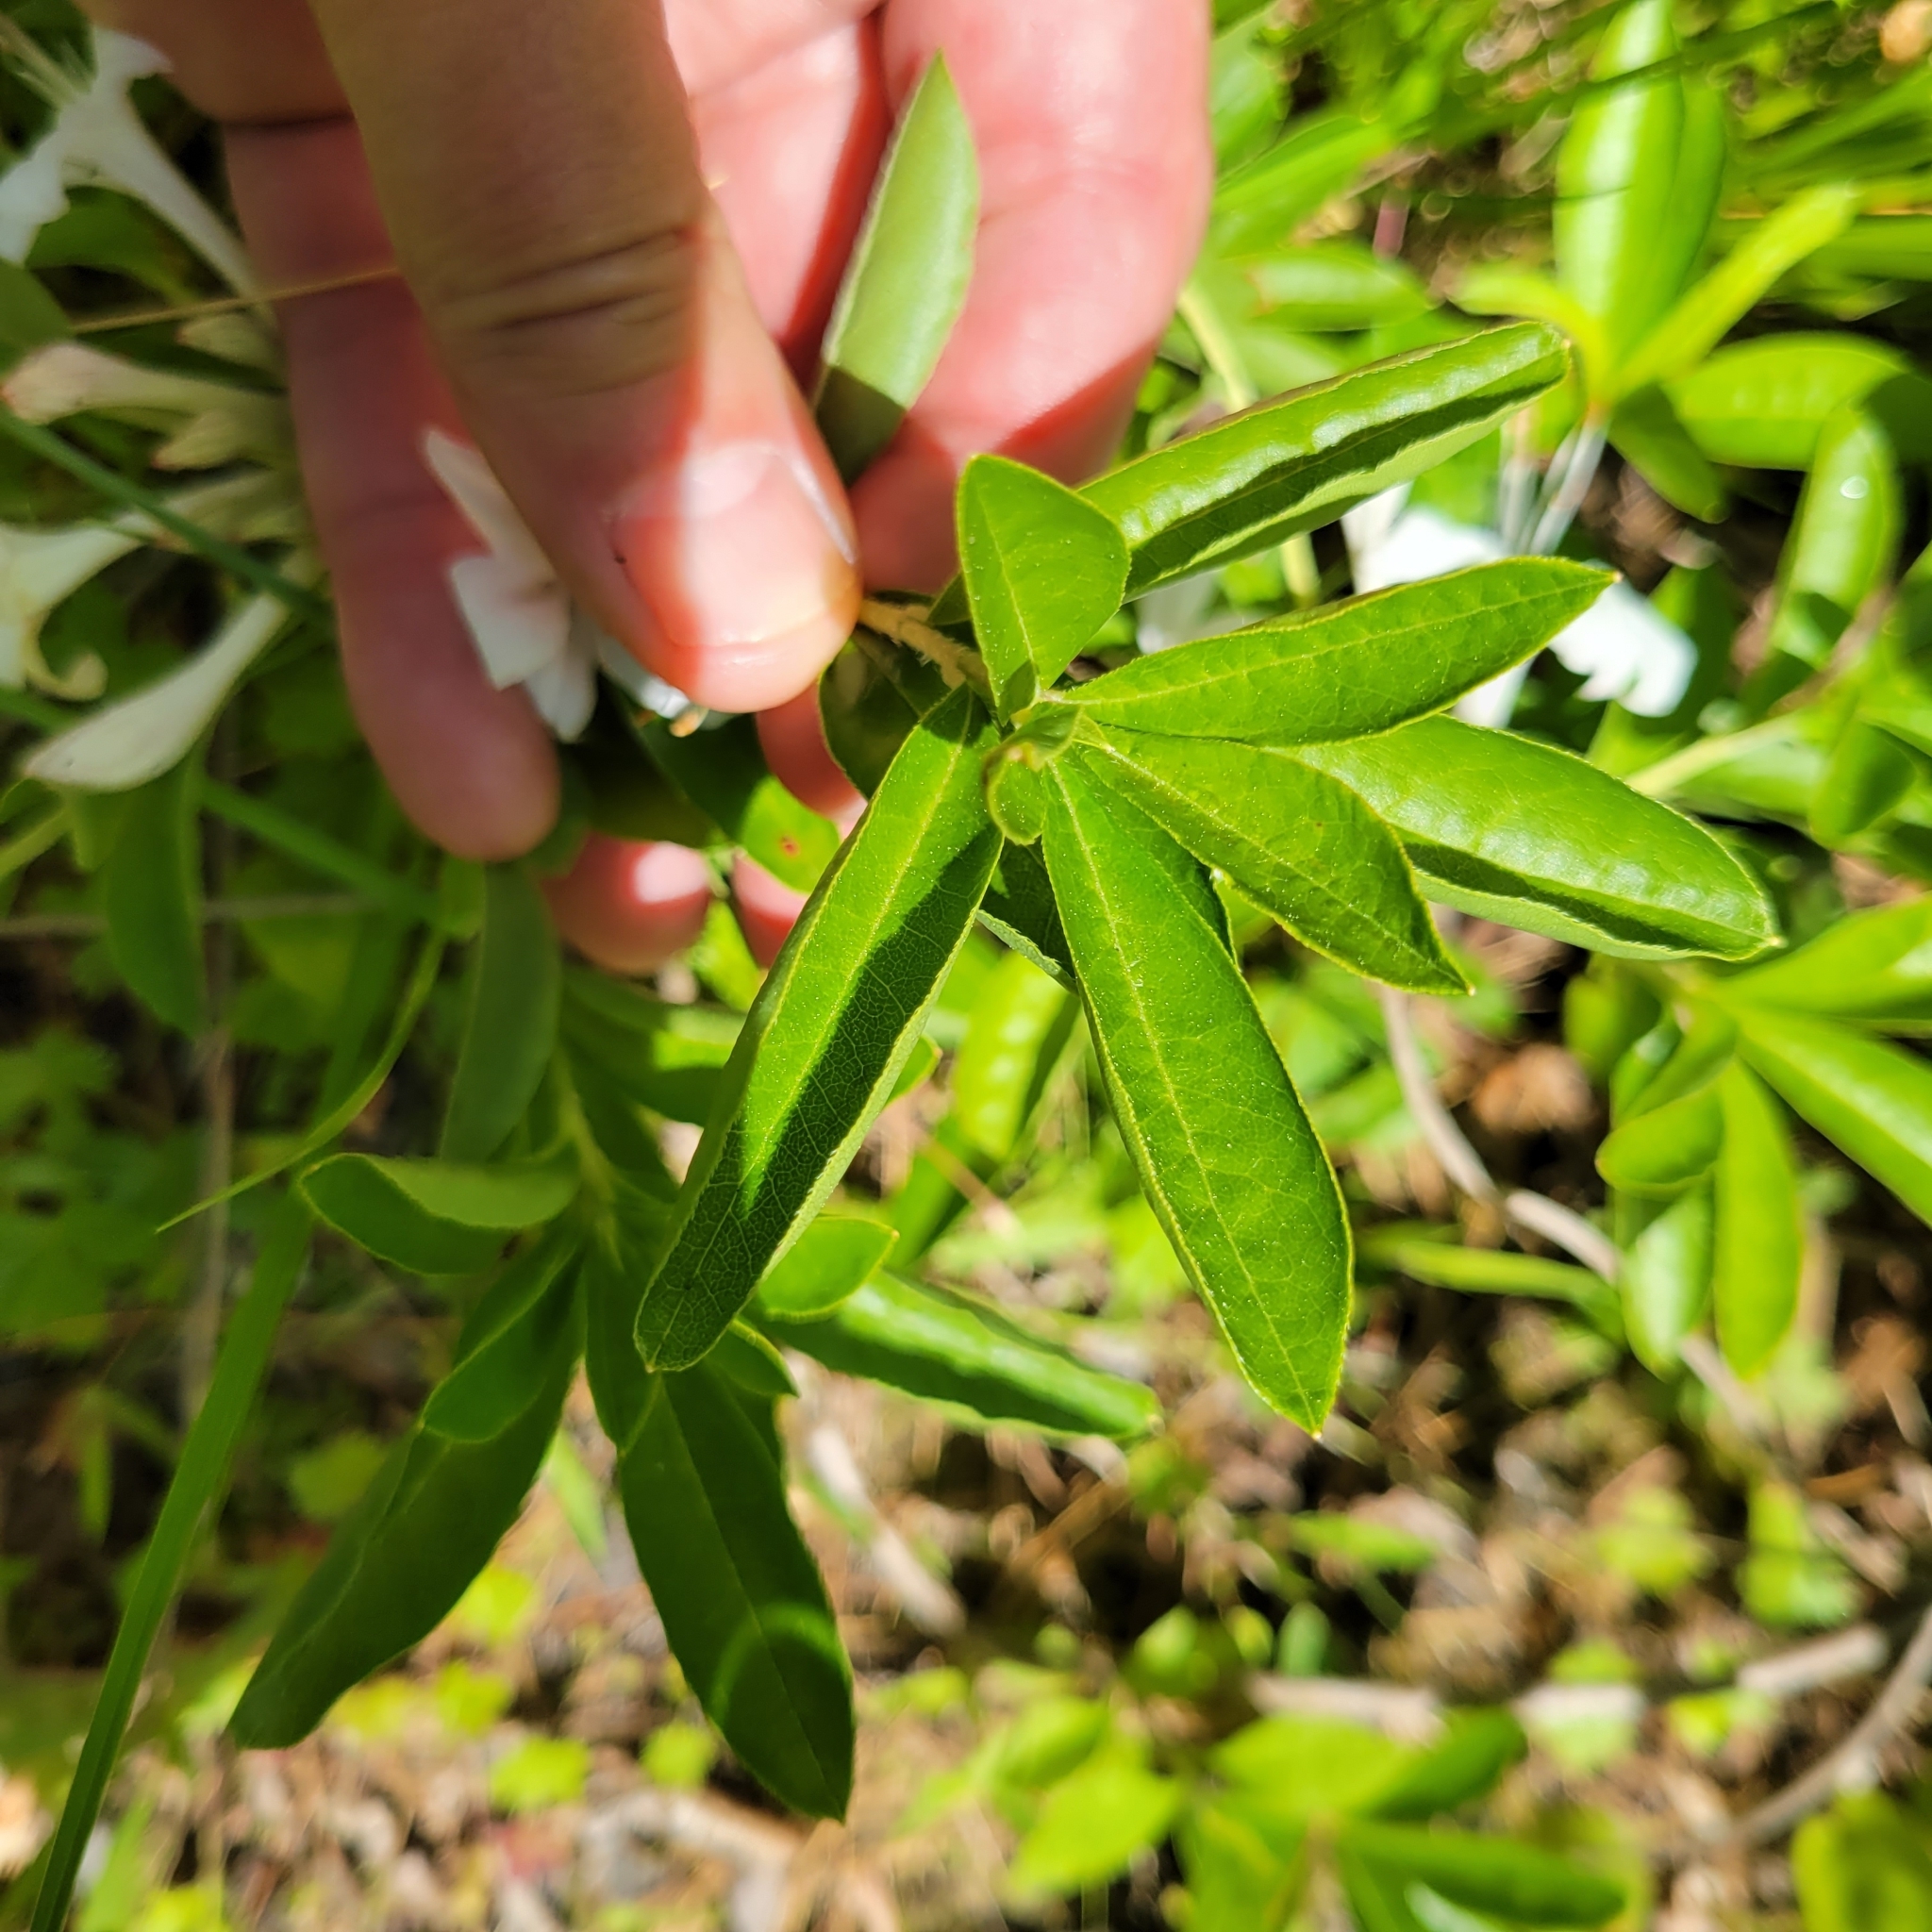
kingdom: Plantae
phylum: Tracheophyta
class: Magnoliopsida
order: Ericales
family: Ericaceae
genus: Rhododendron
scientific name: Rhododendron viscosum
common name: Clammy azalea
